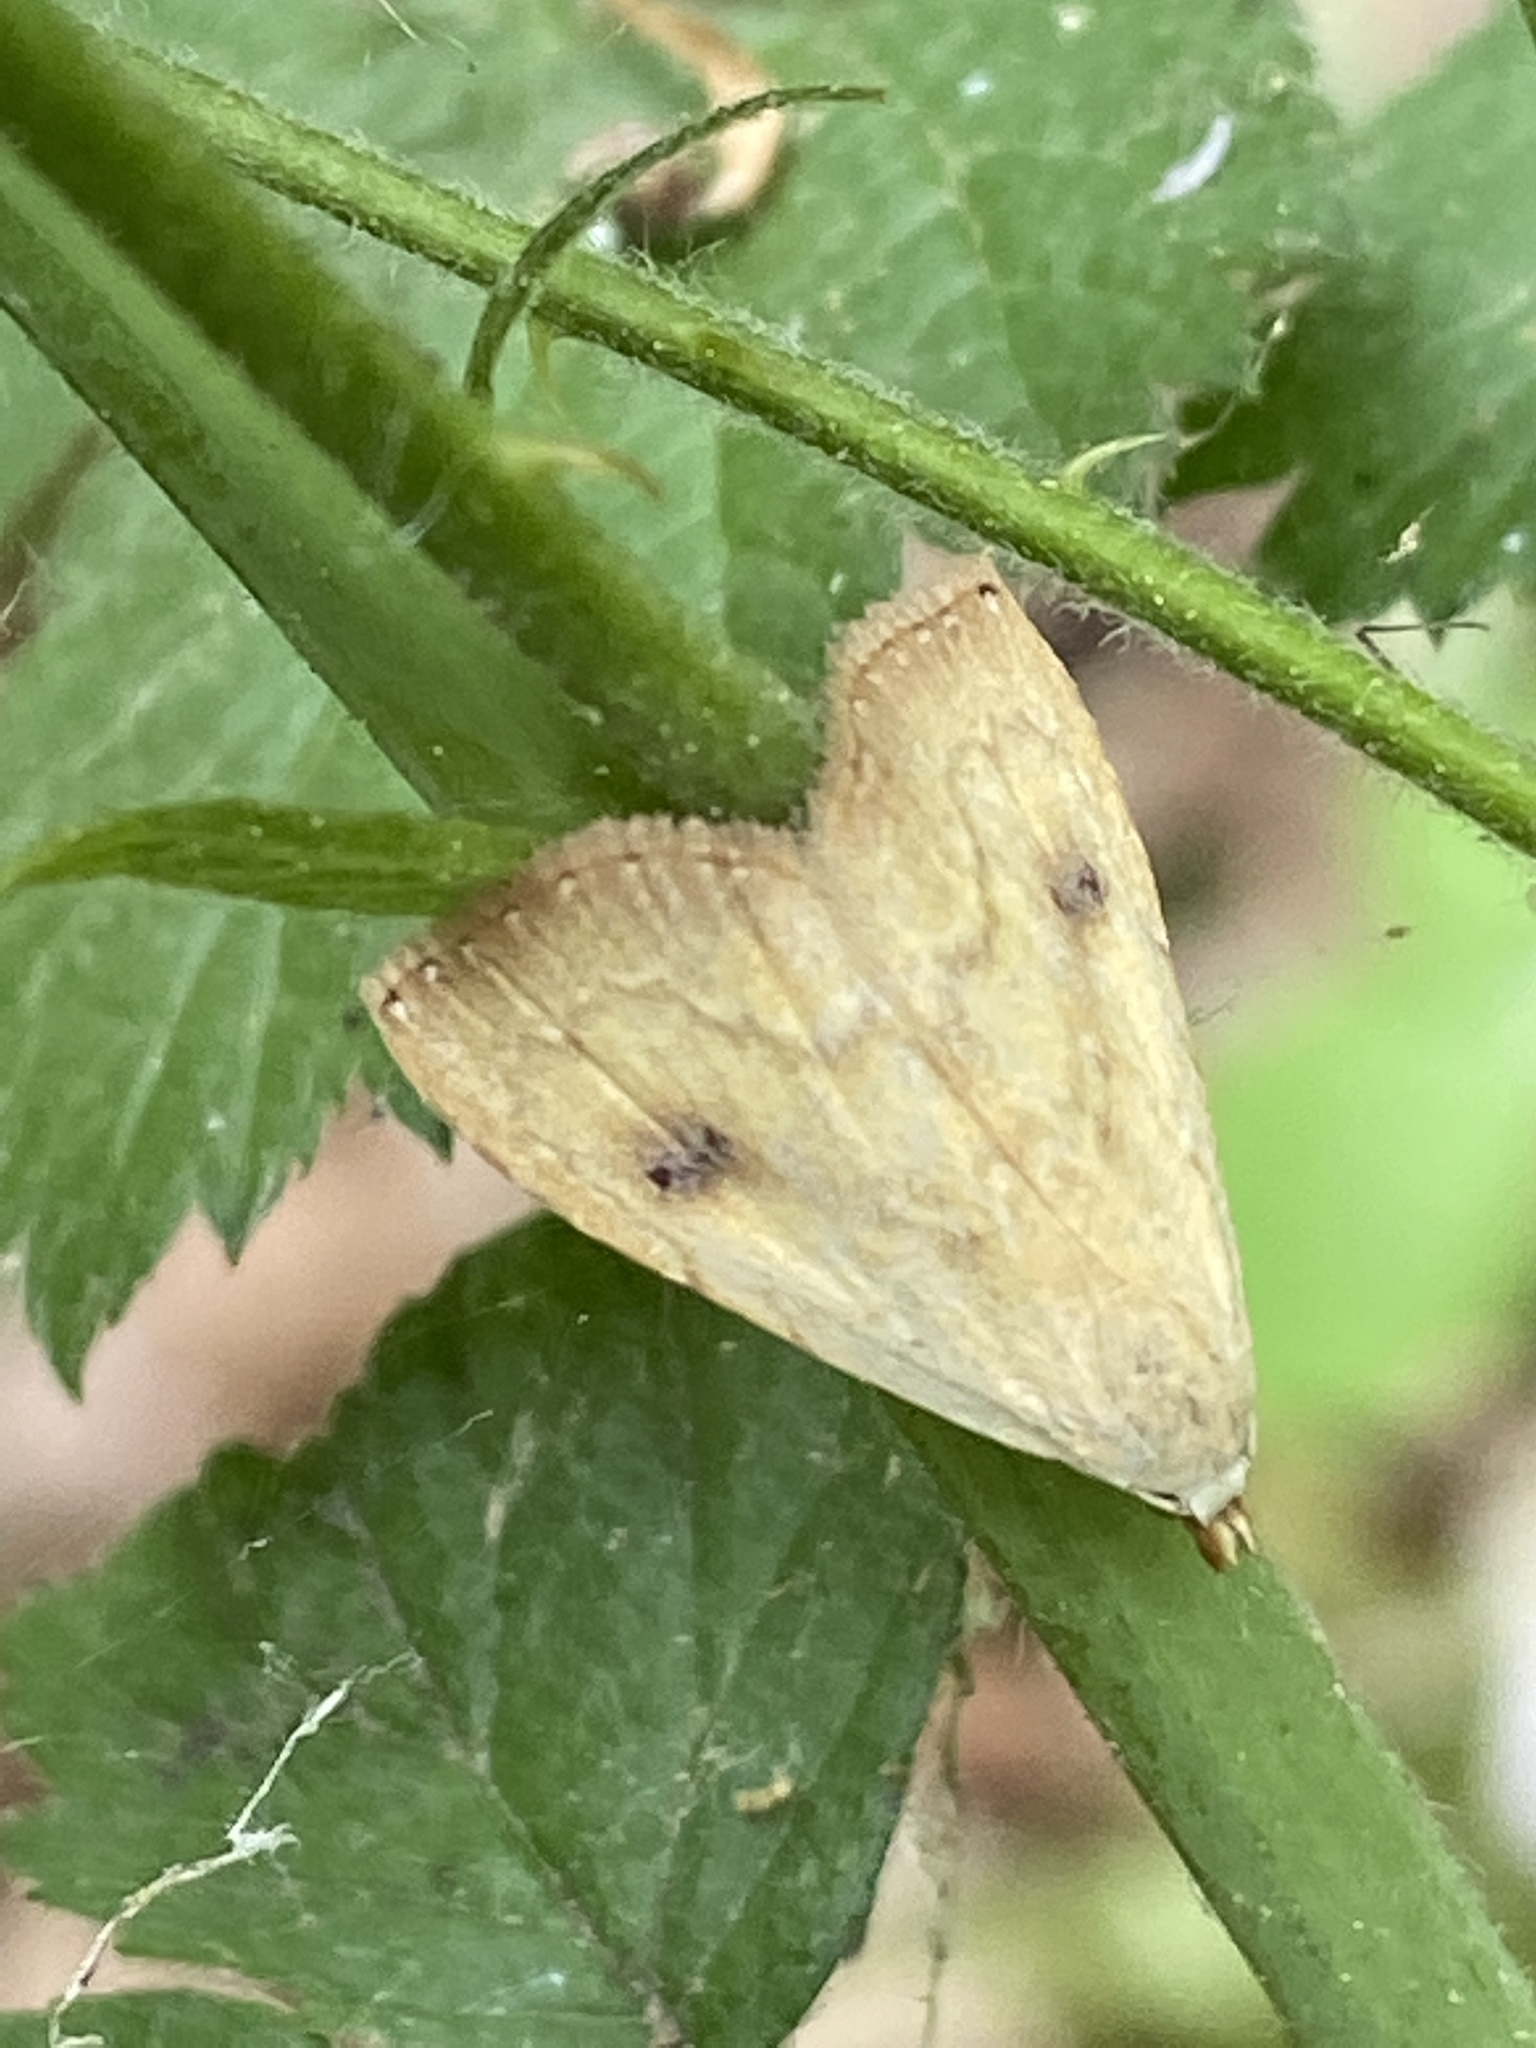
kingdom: Animalia
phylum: Arthropoda
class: Insecta
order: Lepidoptera
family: Erebidae
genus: Rivula
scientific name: Rivula sericealis
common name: Straw dot
